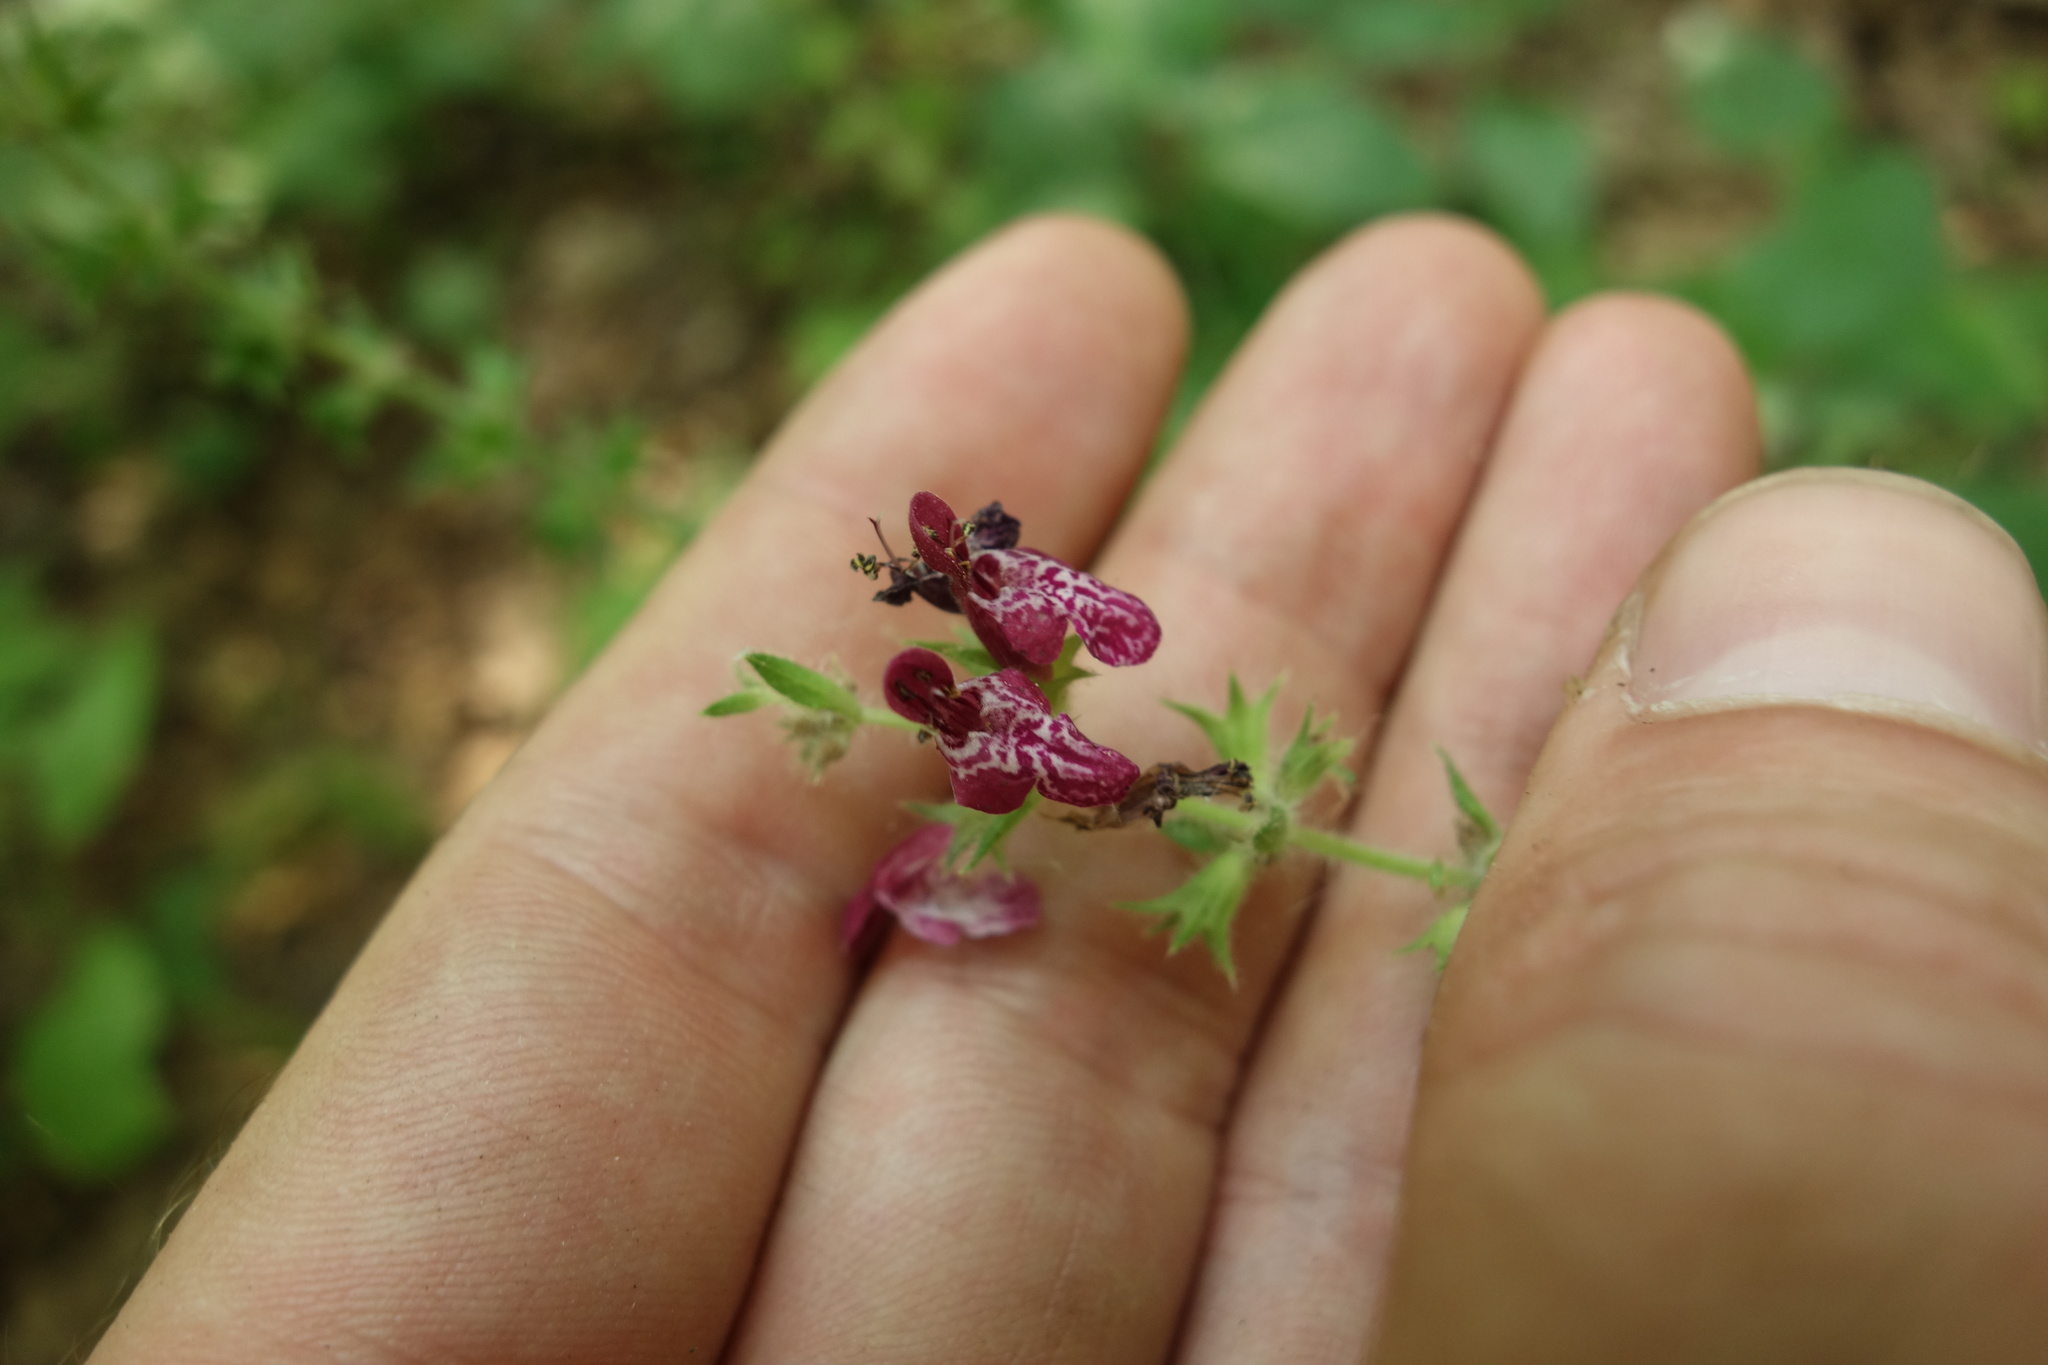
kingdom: Plantae
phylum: Tracheophyta
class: Magnoliopsida
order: Lamiales
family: Lamiaceae
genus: Stachys
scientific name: Stachys sylvatica
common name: Hedge woundwort
